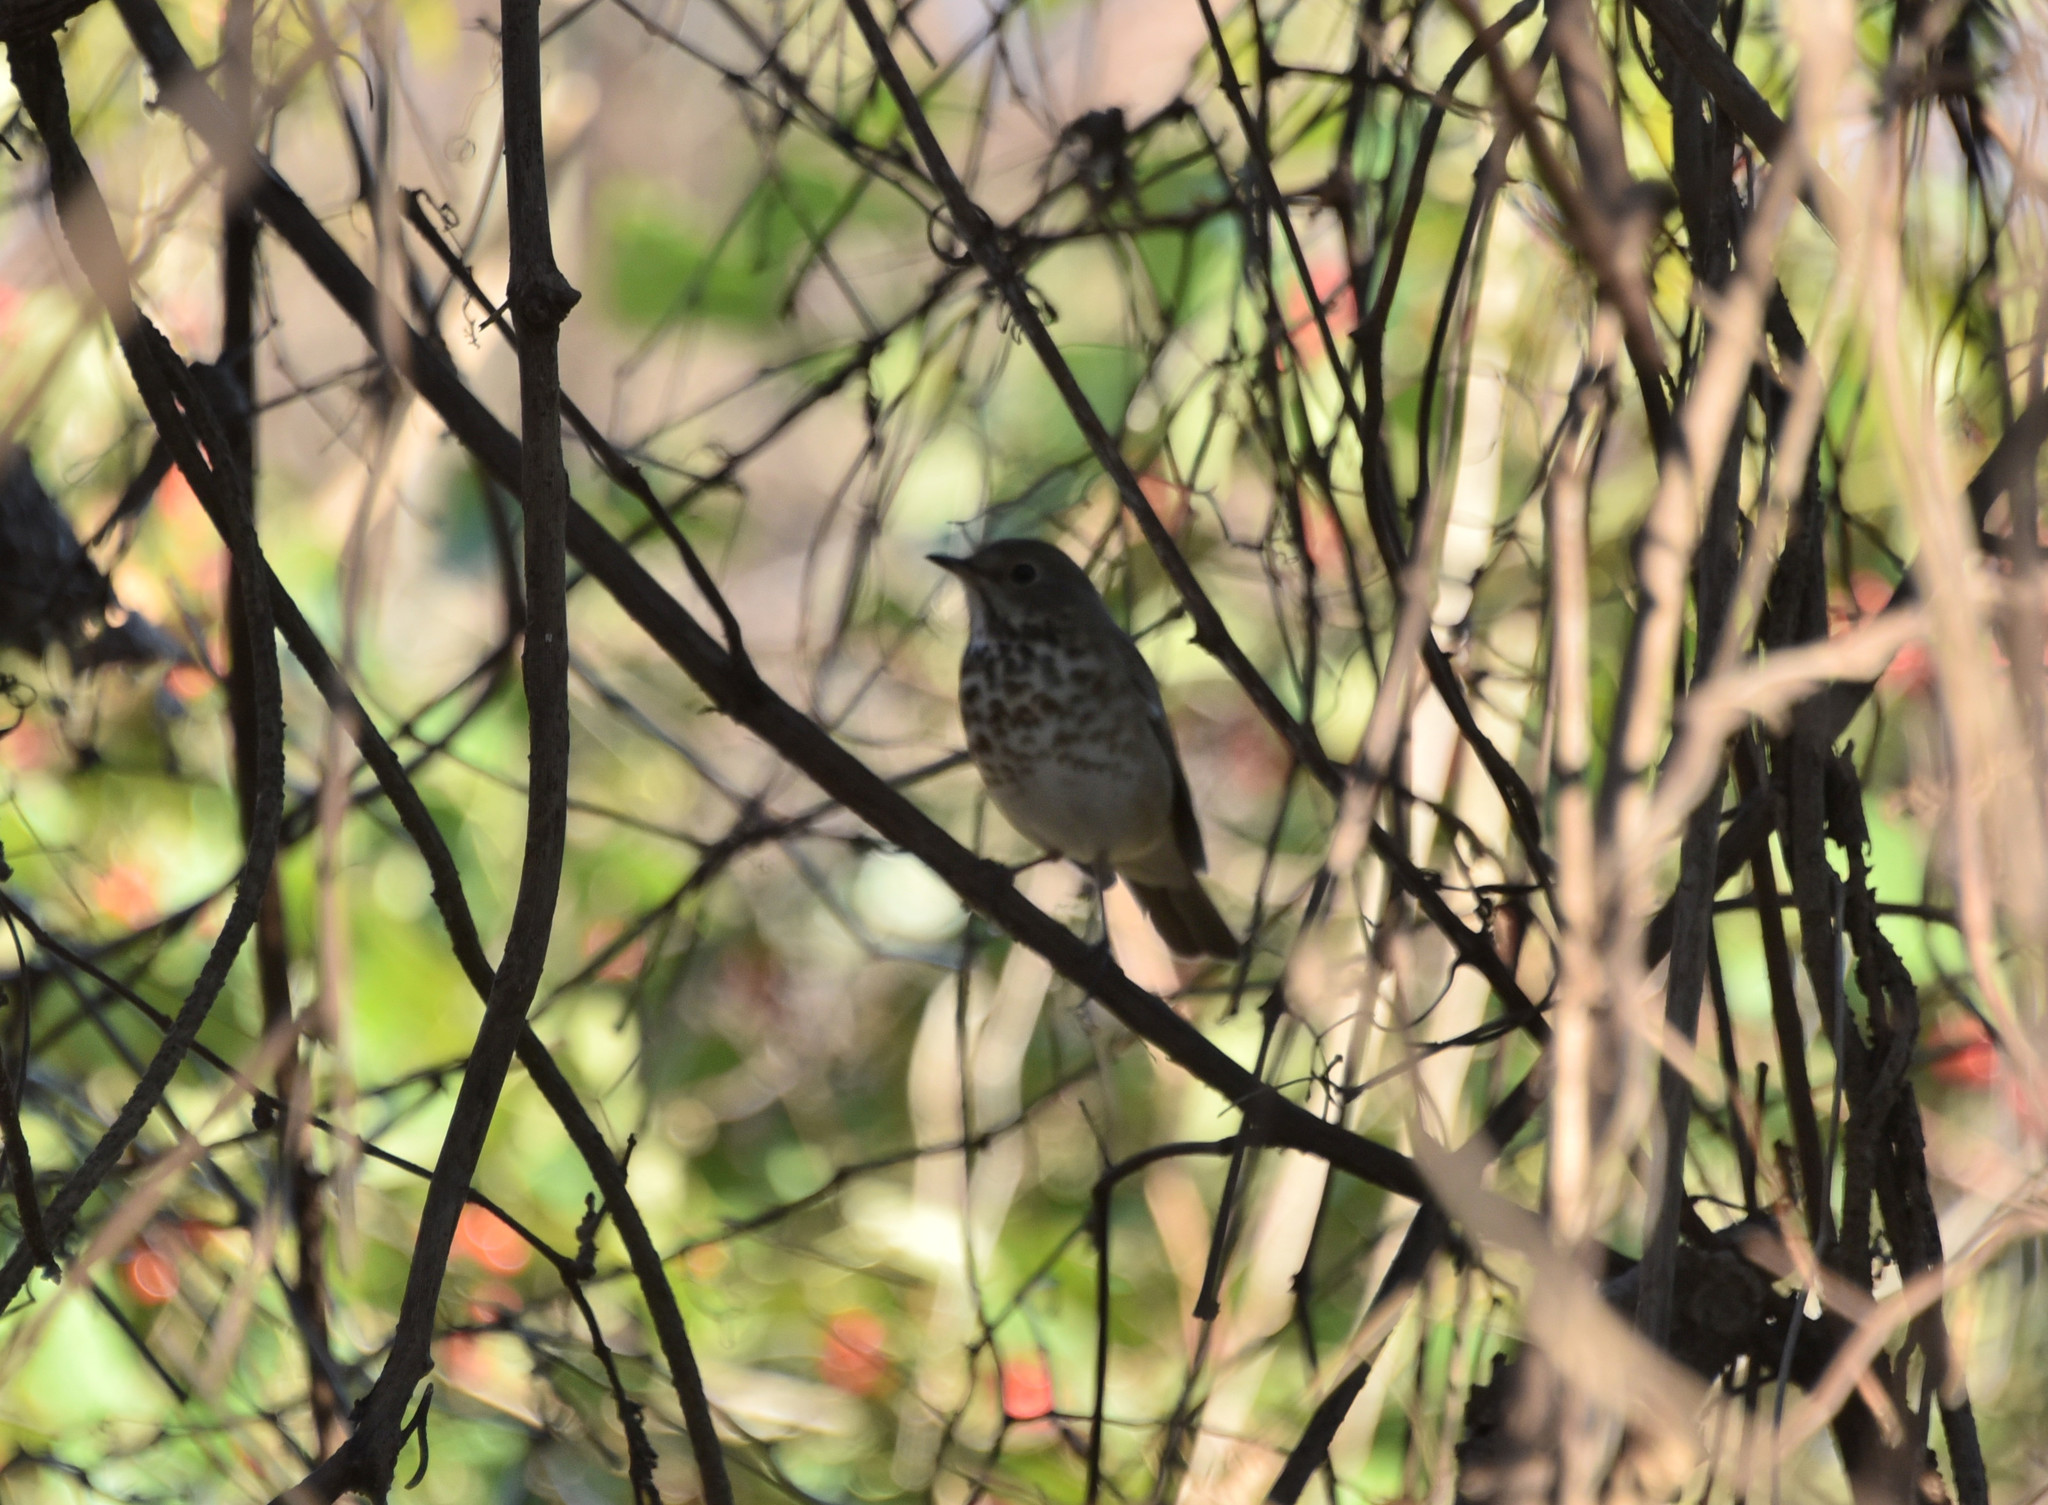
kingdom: Animalia
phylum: Chordata
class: Aves
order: Passeriformes
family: Turdidae
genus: Catharus
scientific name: Catharus guttatus
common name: Hermit thrush
